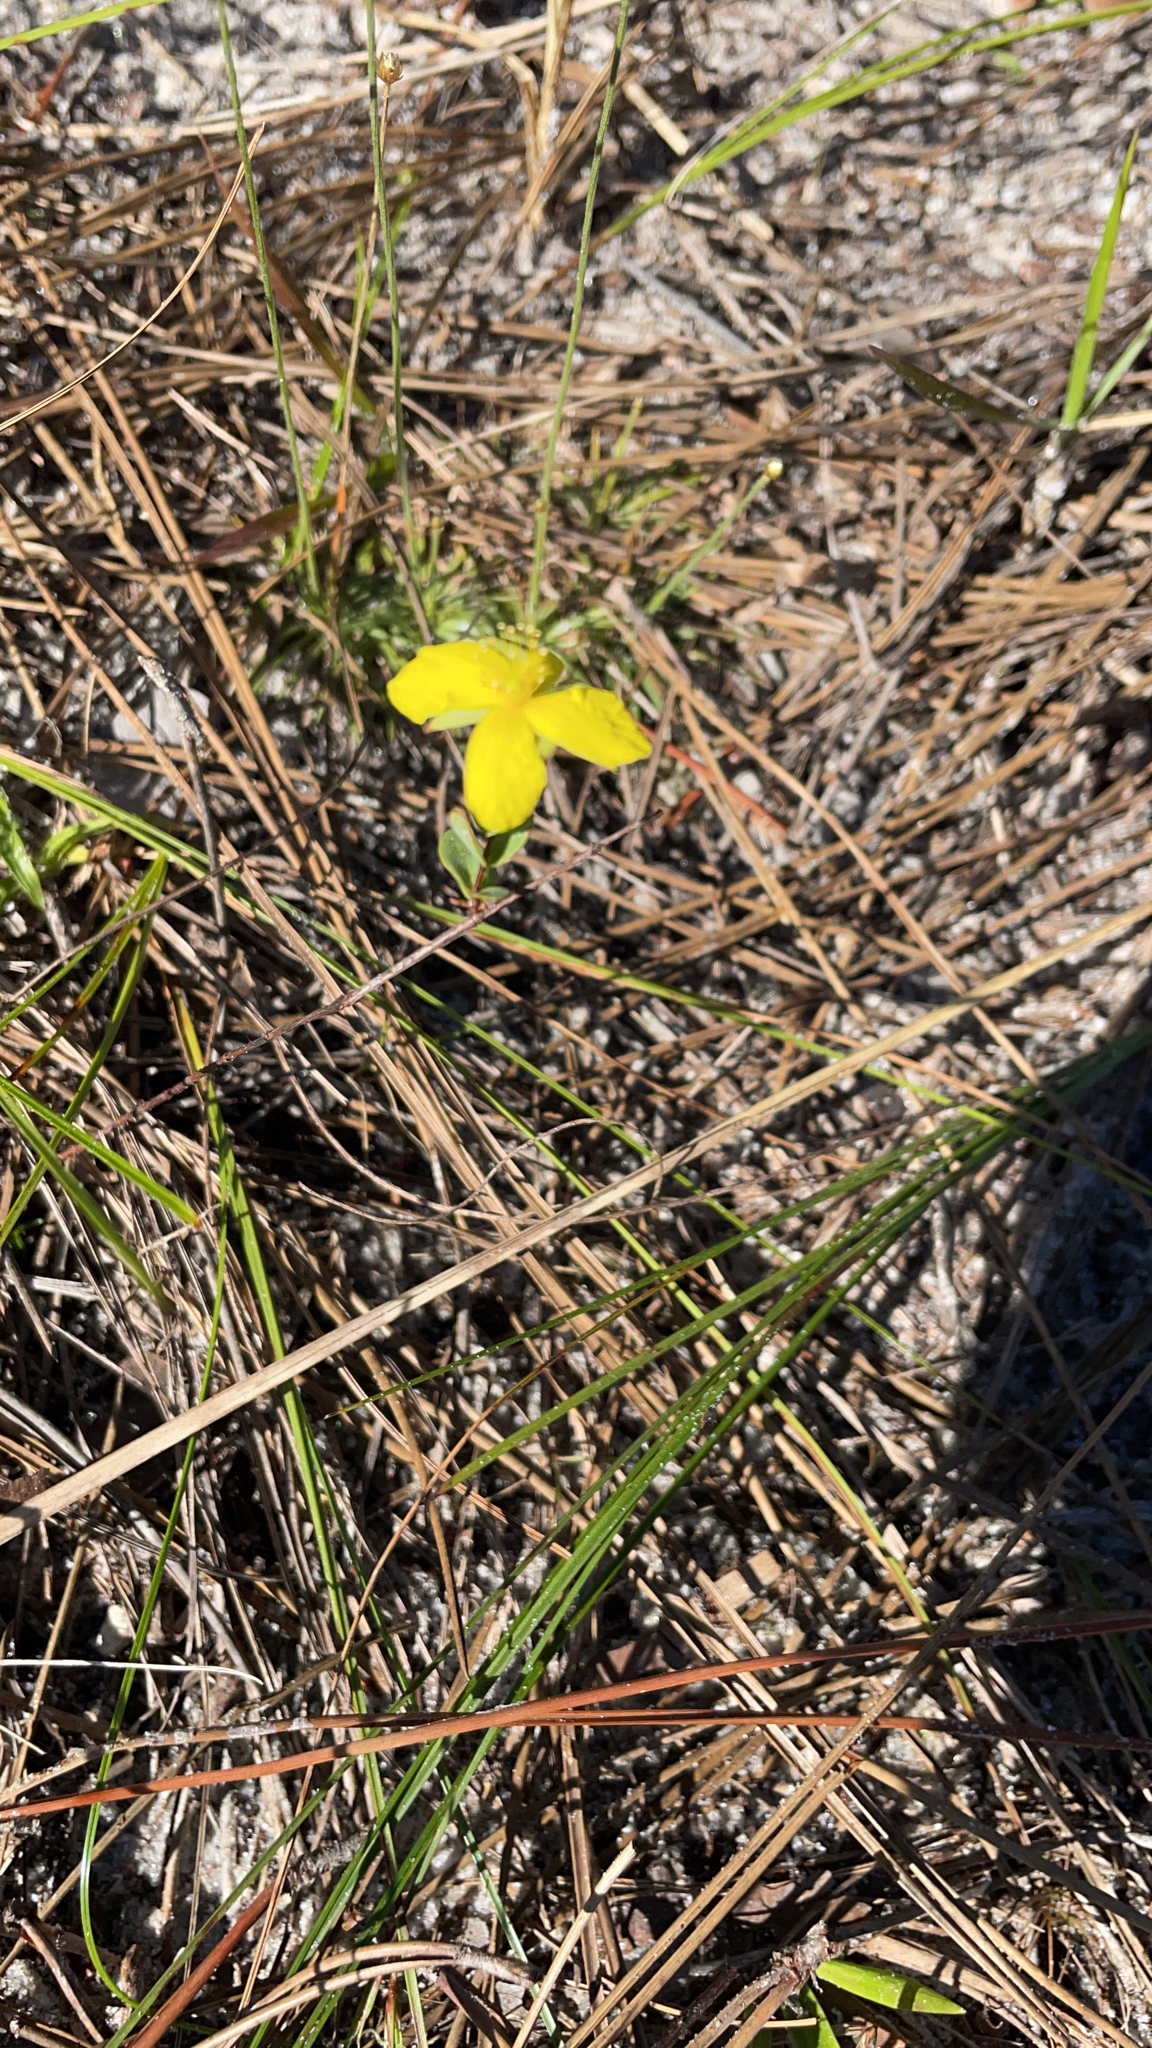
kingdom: Plantae
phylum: Tracheophyta
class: Magnoliopsida
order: Malpighiales
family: Hypericaceae
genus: Hypericum
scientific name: Hypericum tetrapetalum
